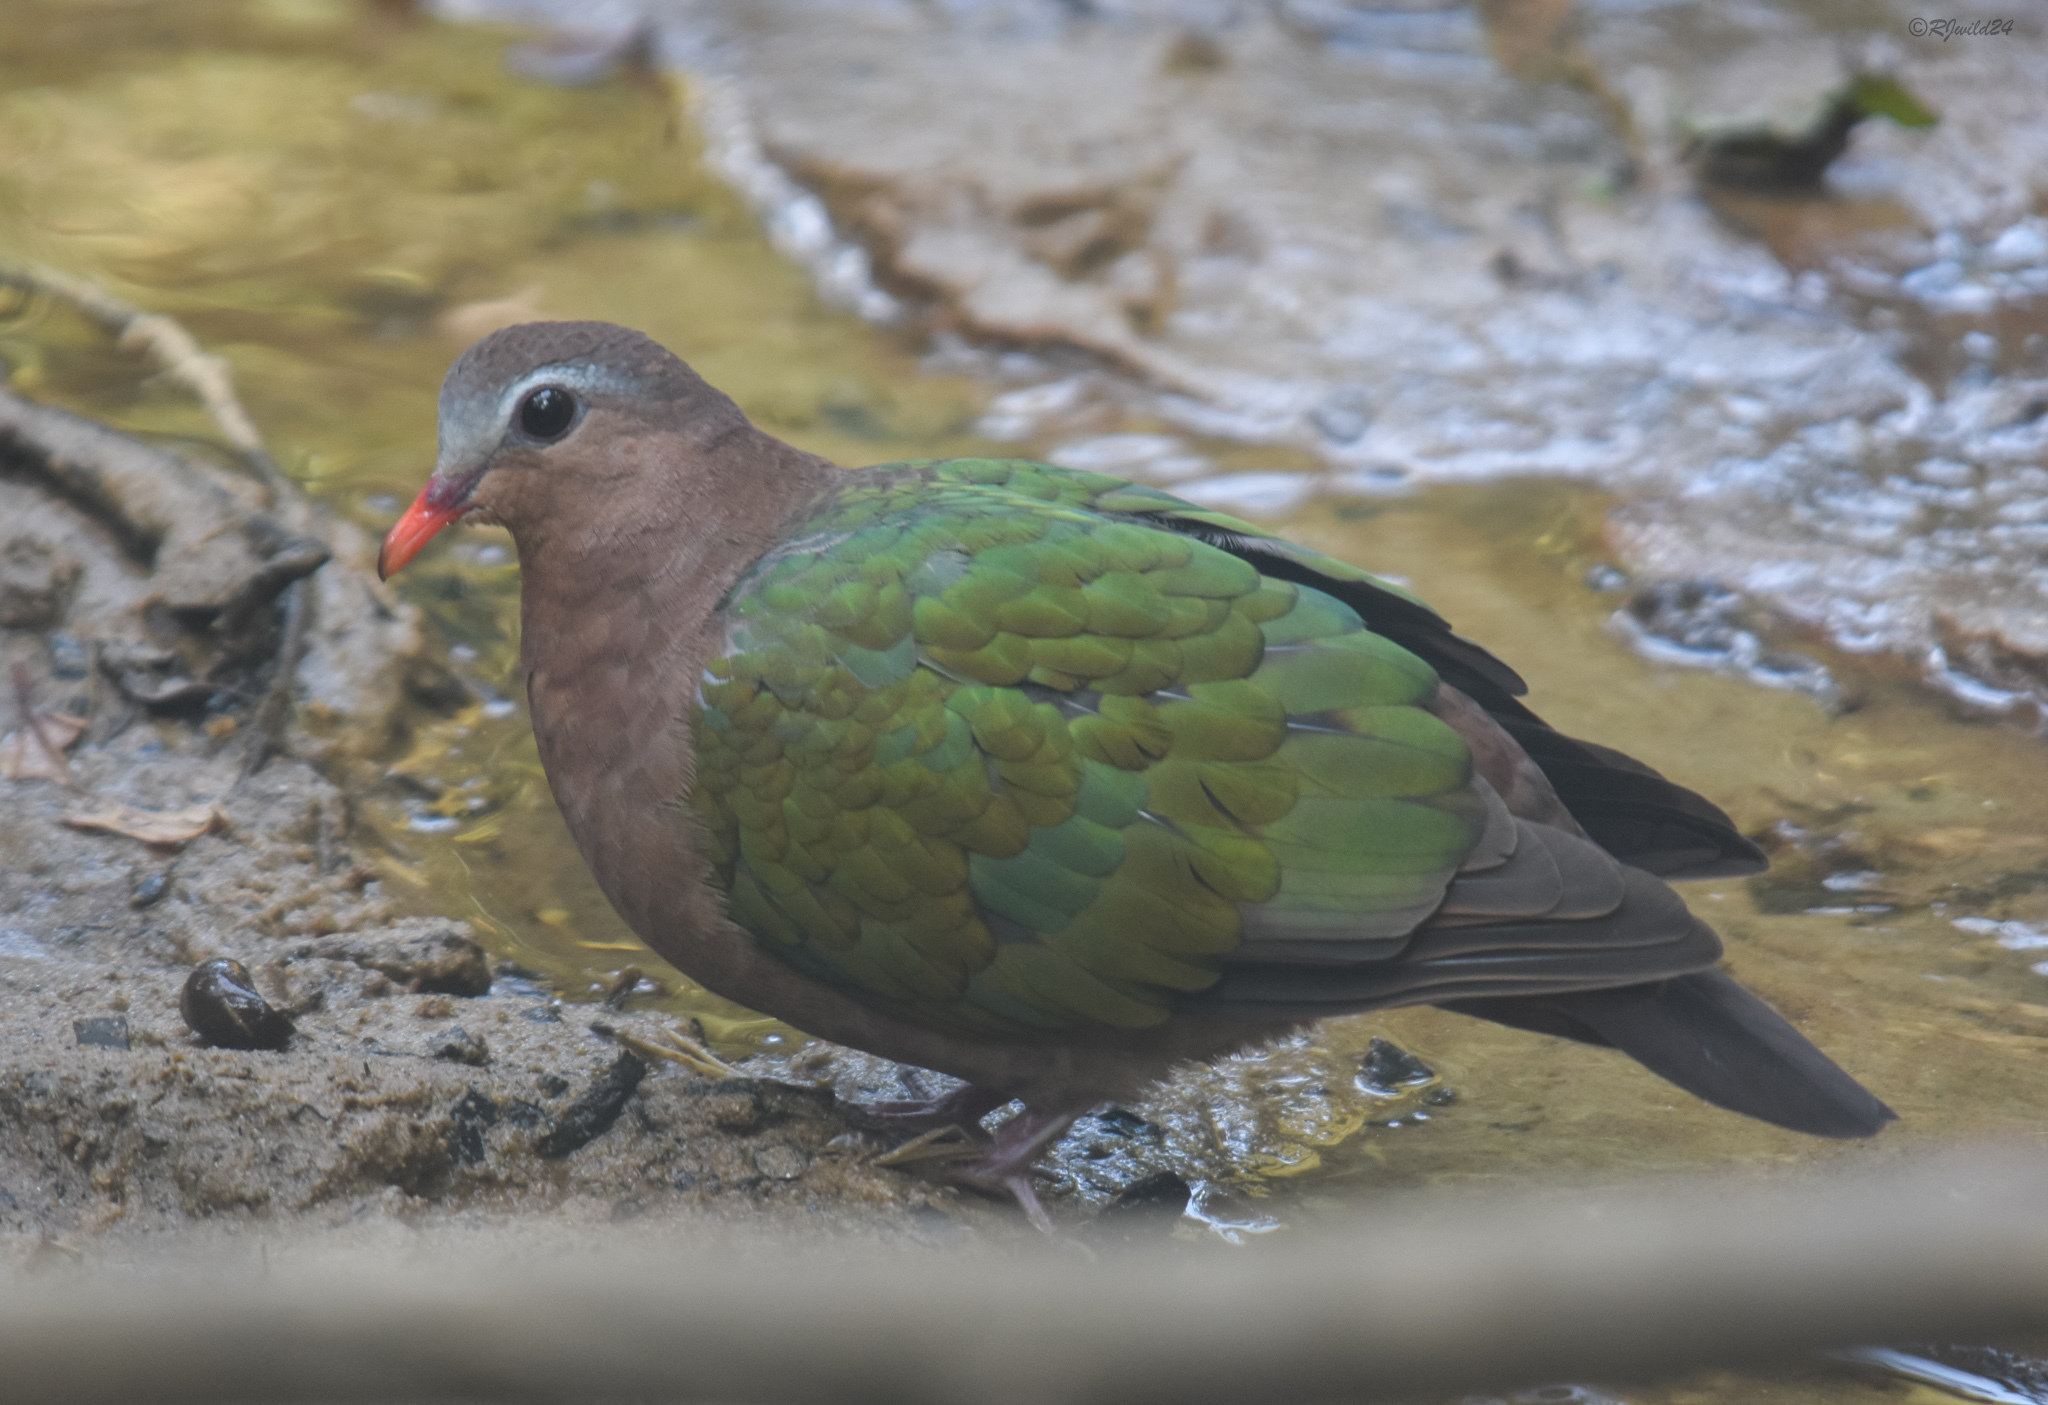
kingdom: Animalia
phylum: Chordata
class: Aves
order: Columbiformes
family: Columbidae
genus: Chalcophaps
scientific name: Chalcophaps indica
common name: Common emerald dove
